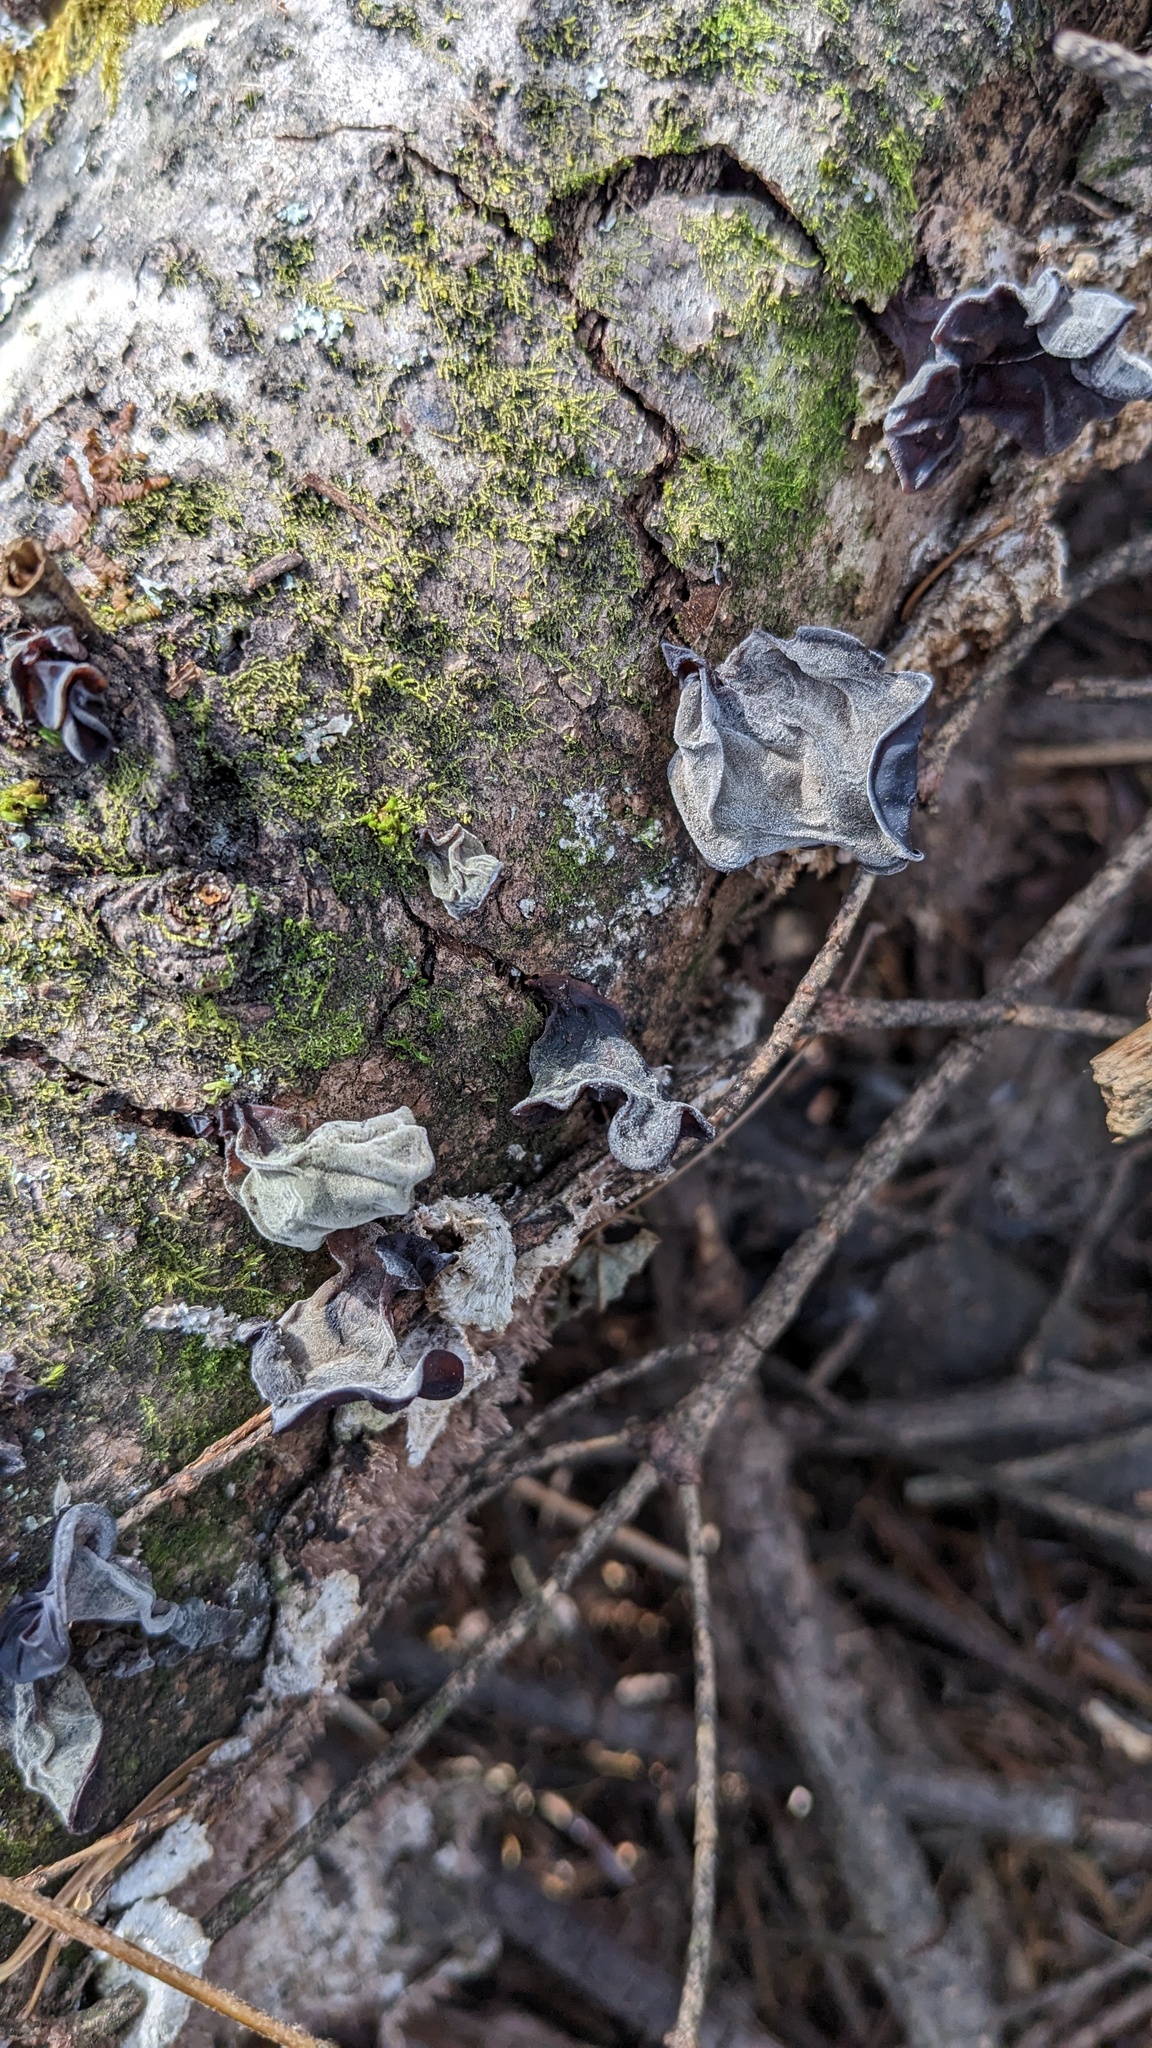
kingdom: Fungi
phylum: Basidiomycota
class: Agaricomycetes
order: Auriculariales
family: Auriculariaceae
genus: Auricularia
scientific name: Auricularia nigricans
